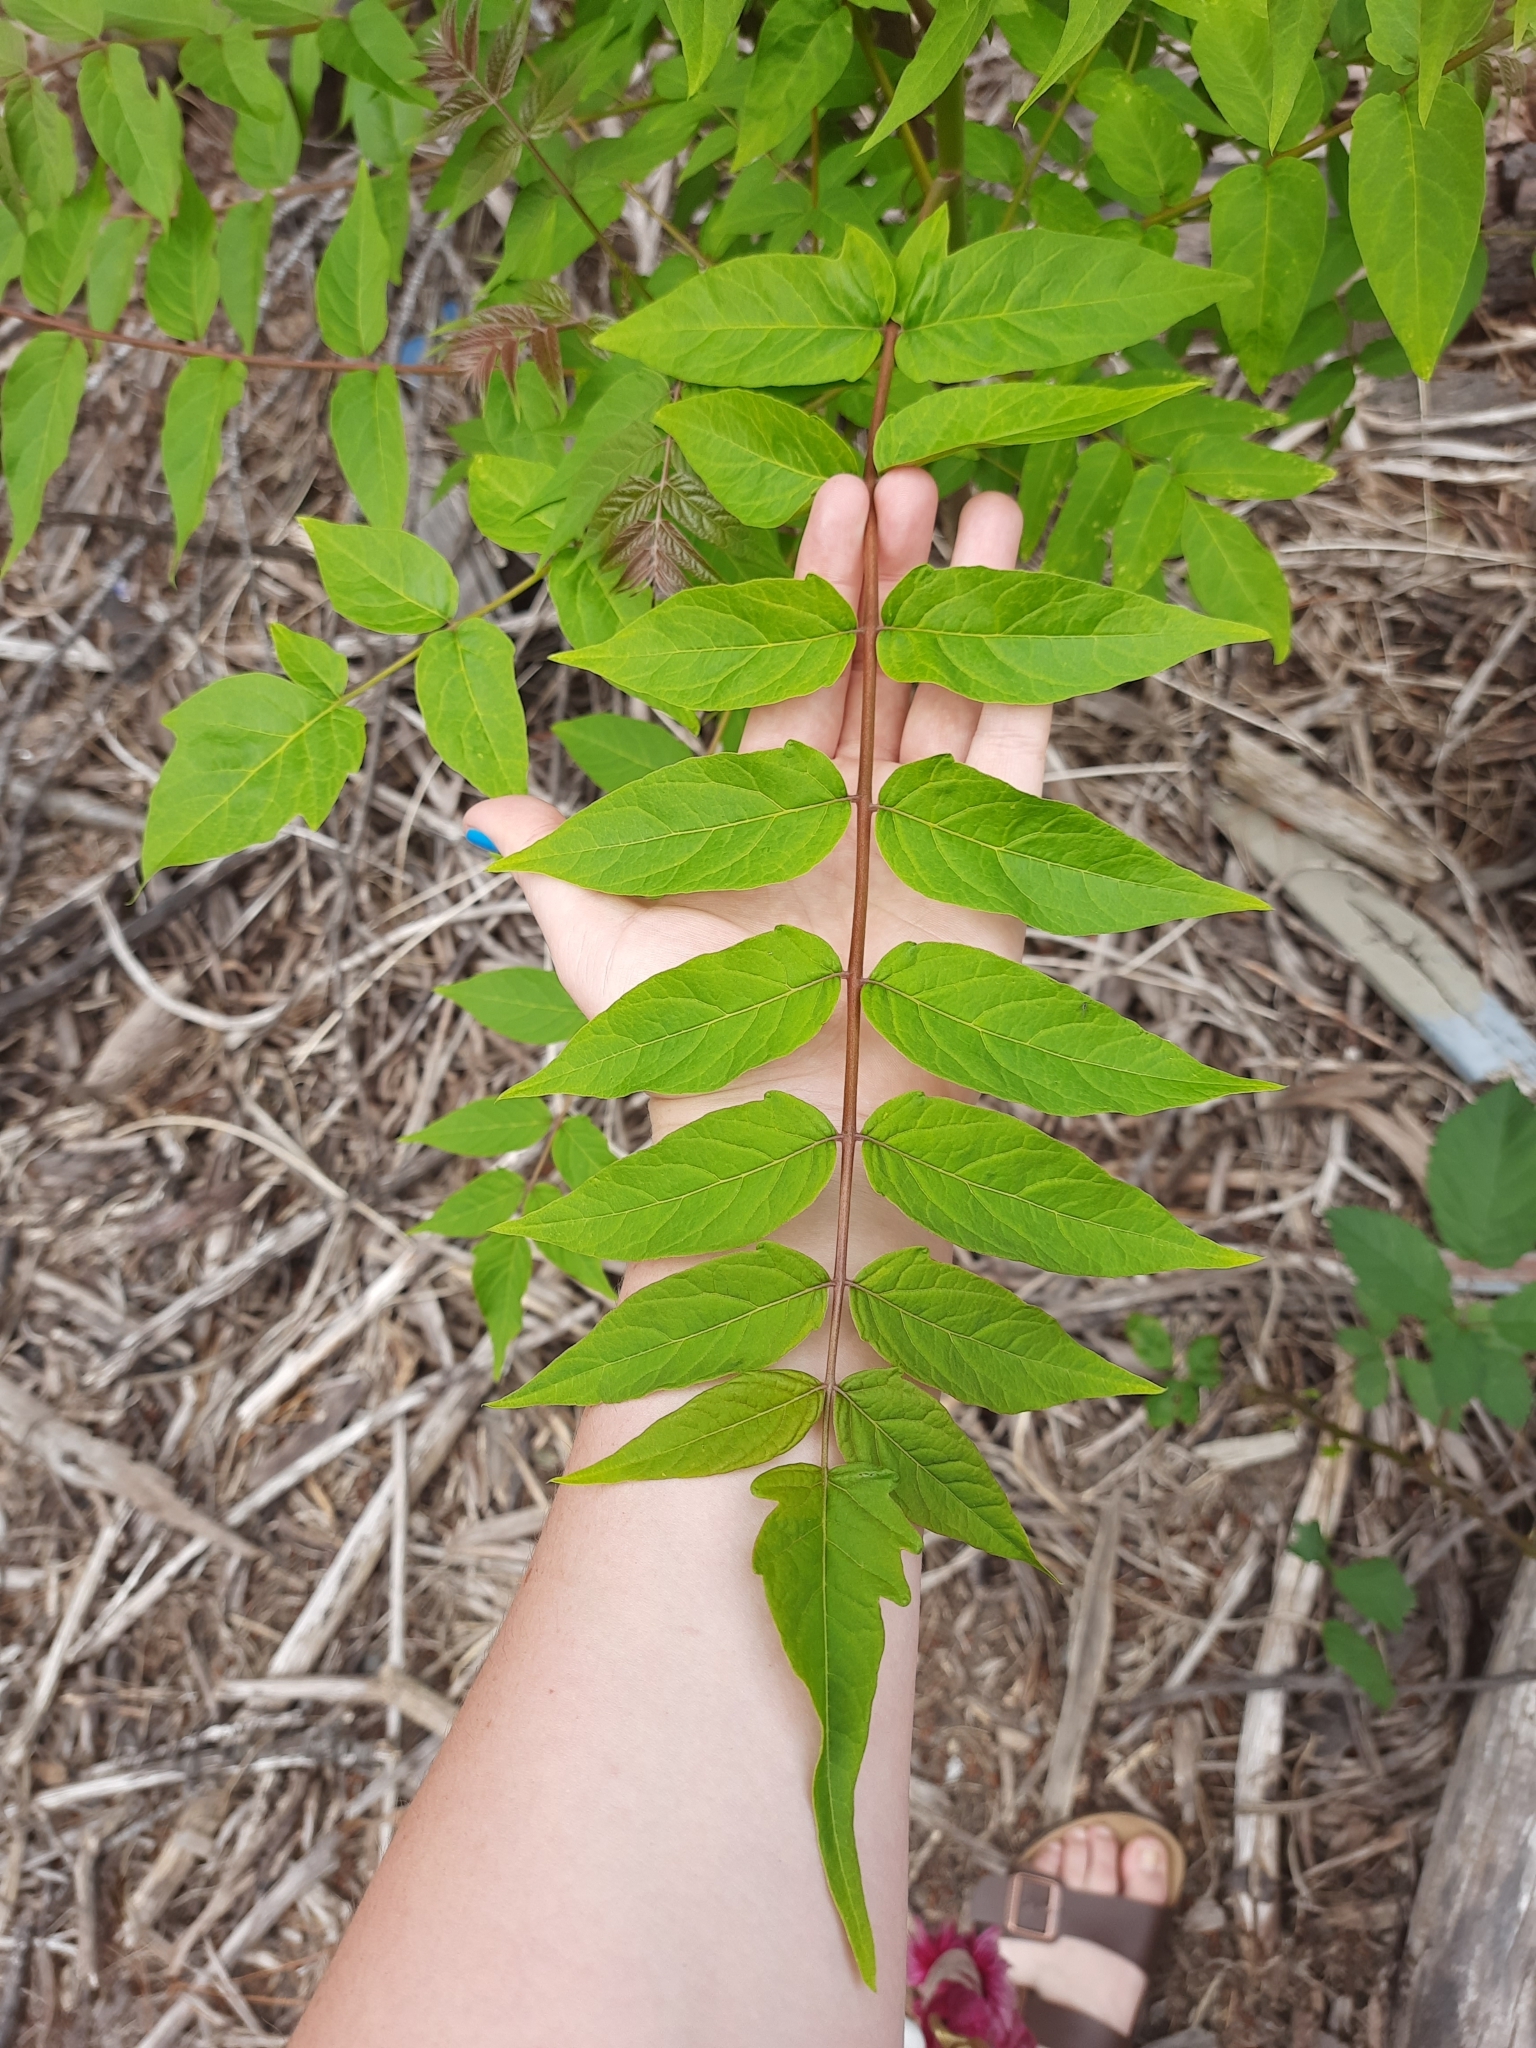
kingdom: Plantae
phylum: Tracheophyta
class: Magnoliopsida
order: Sapindales
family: Simaroubaceae
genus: Ailanthus
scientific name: Ailanthus altissima
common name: Tree-of-heaven
